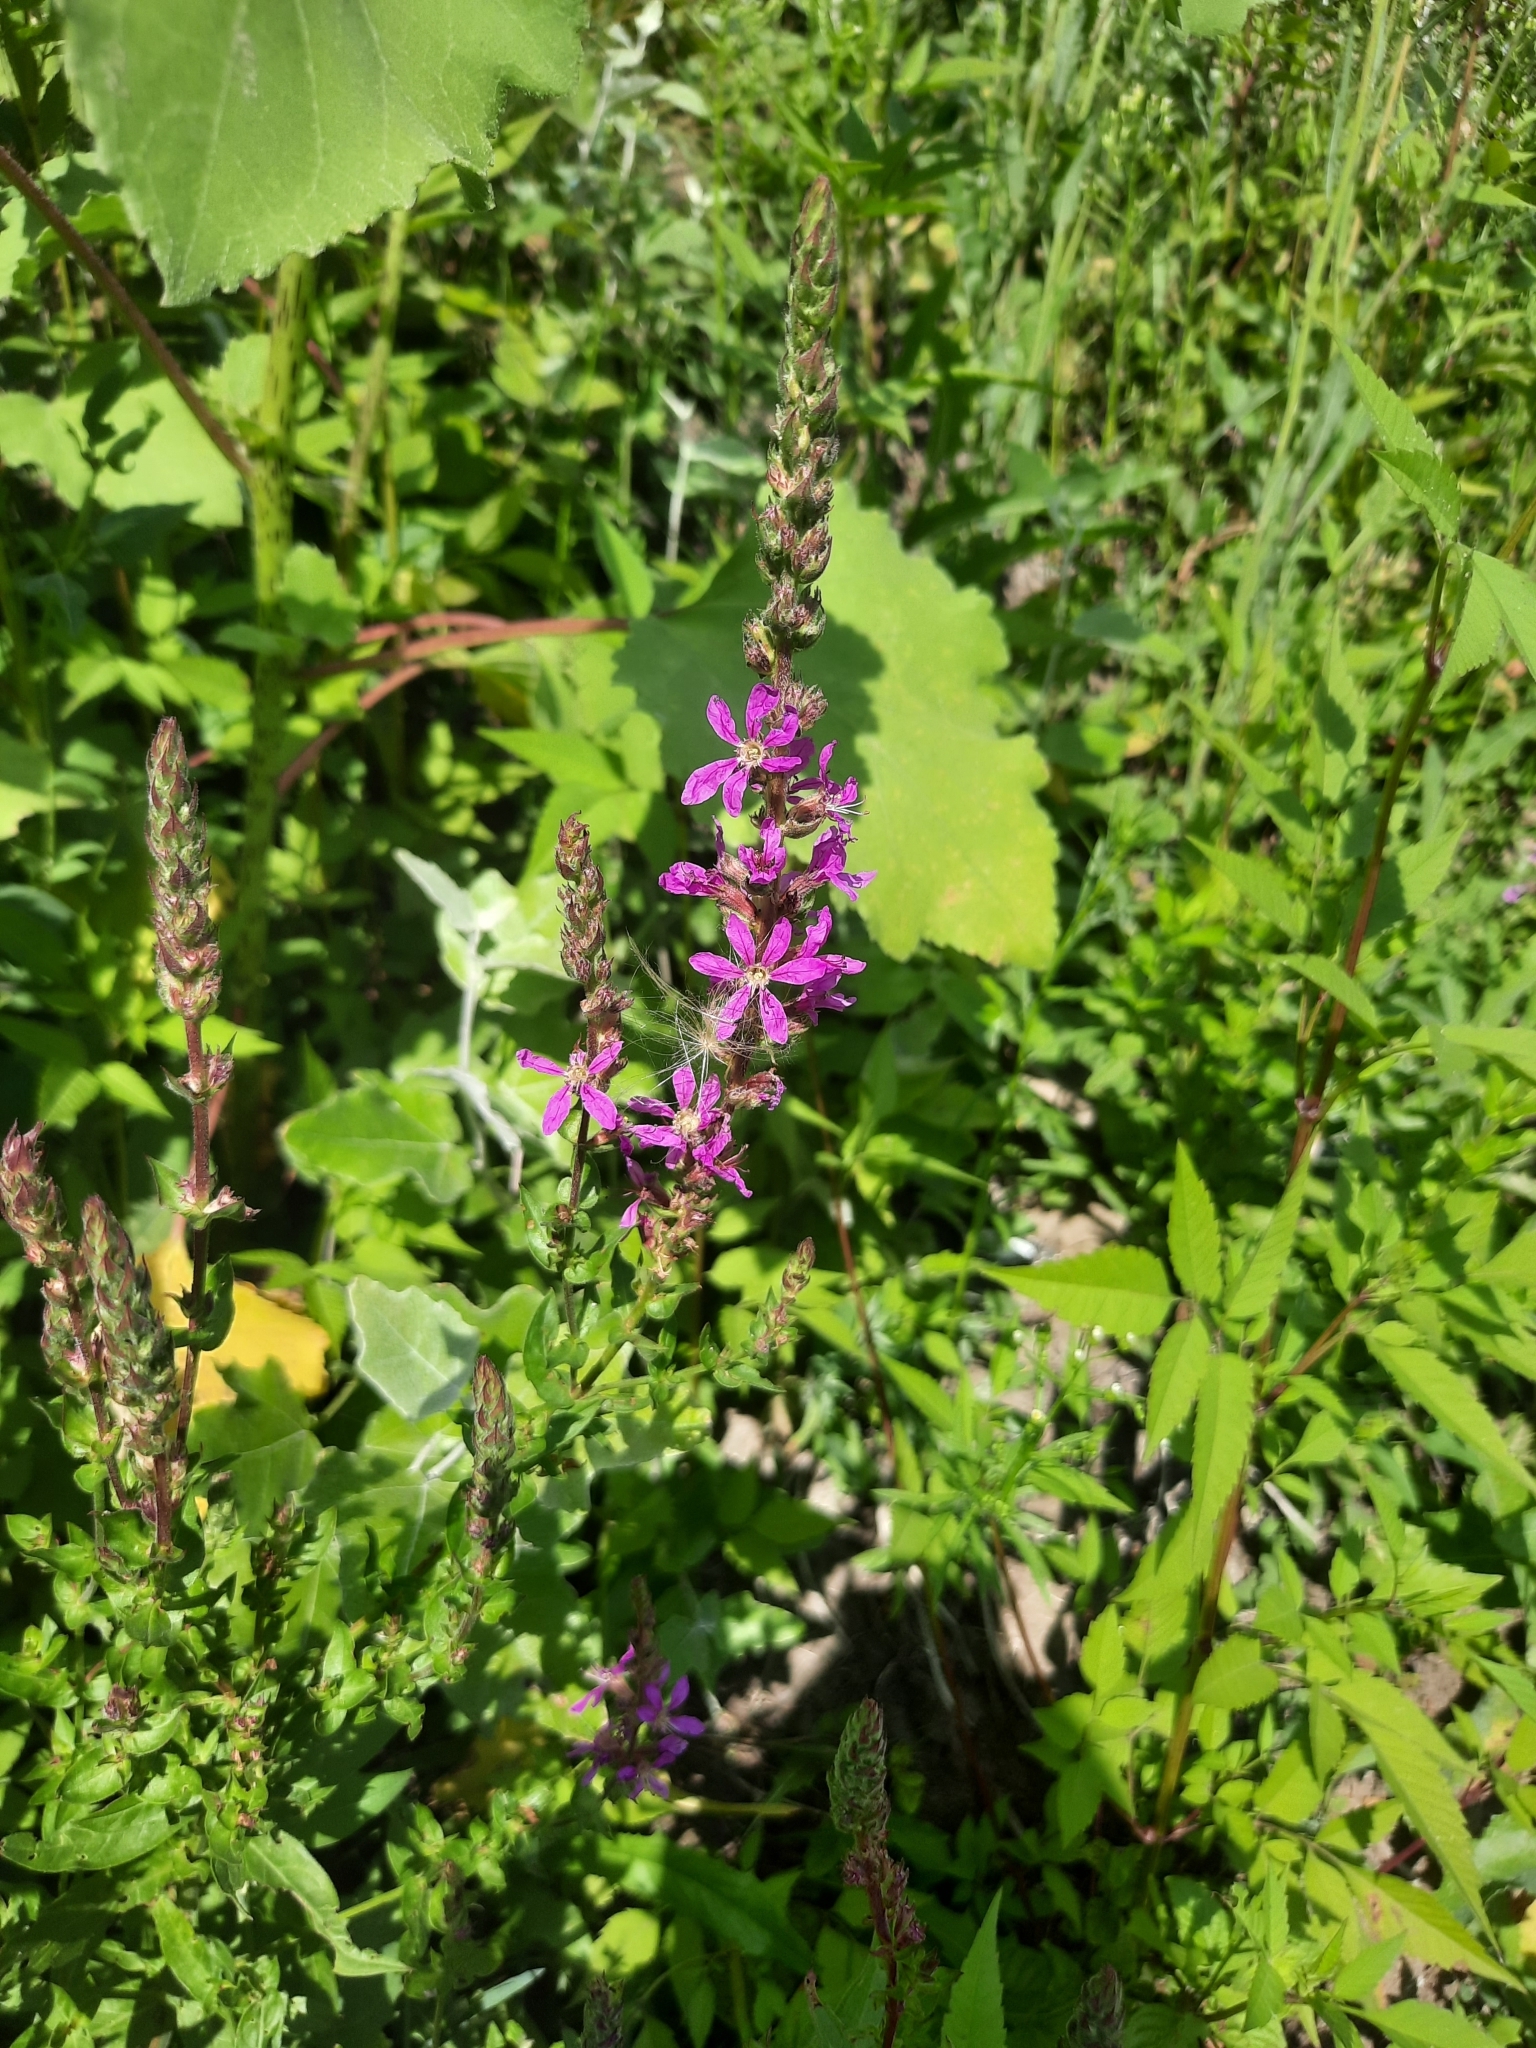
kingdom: Plantae
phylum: Tracheophyta
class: Magnoliopsida
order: Myrtales
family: Lythraceae
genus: Lythrum
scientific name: Lythrum salicaria
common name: Purple loosestrife
